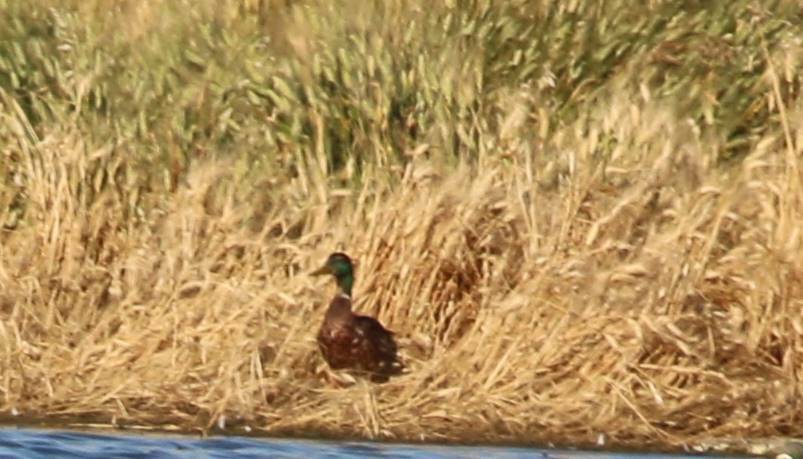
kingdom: Animalia
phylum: Chordata
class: Aves
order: Anseriformes
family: Anatidae
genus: Anas
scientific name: Anas platyrhynchos
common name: Mallard
